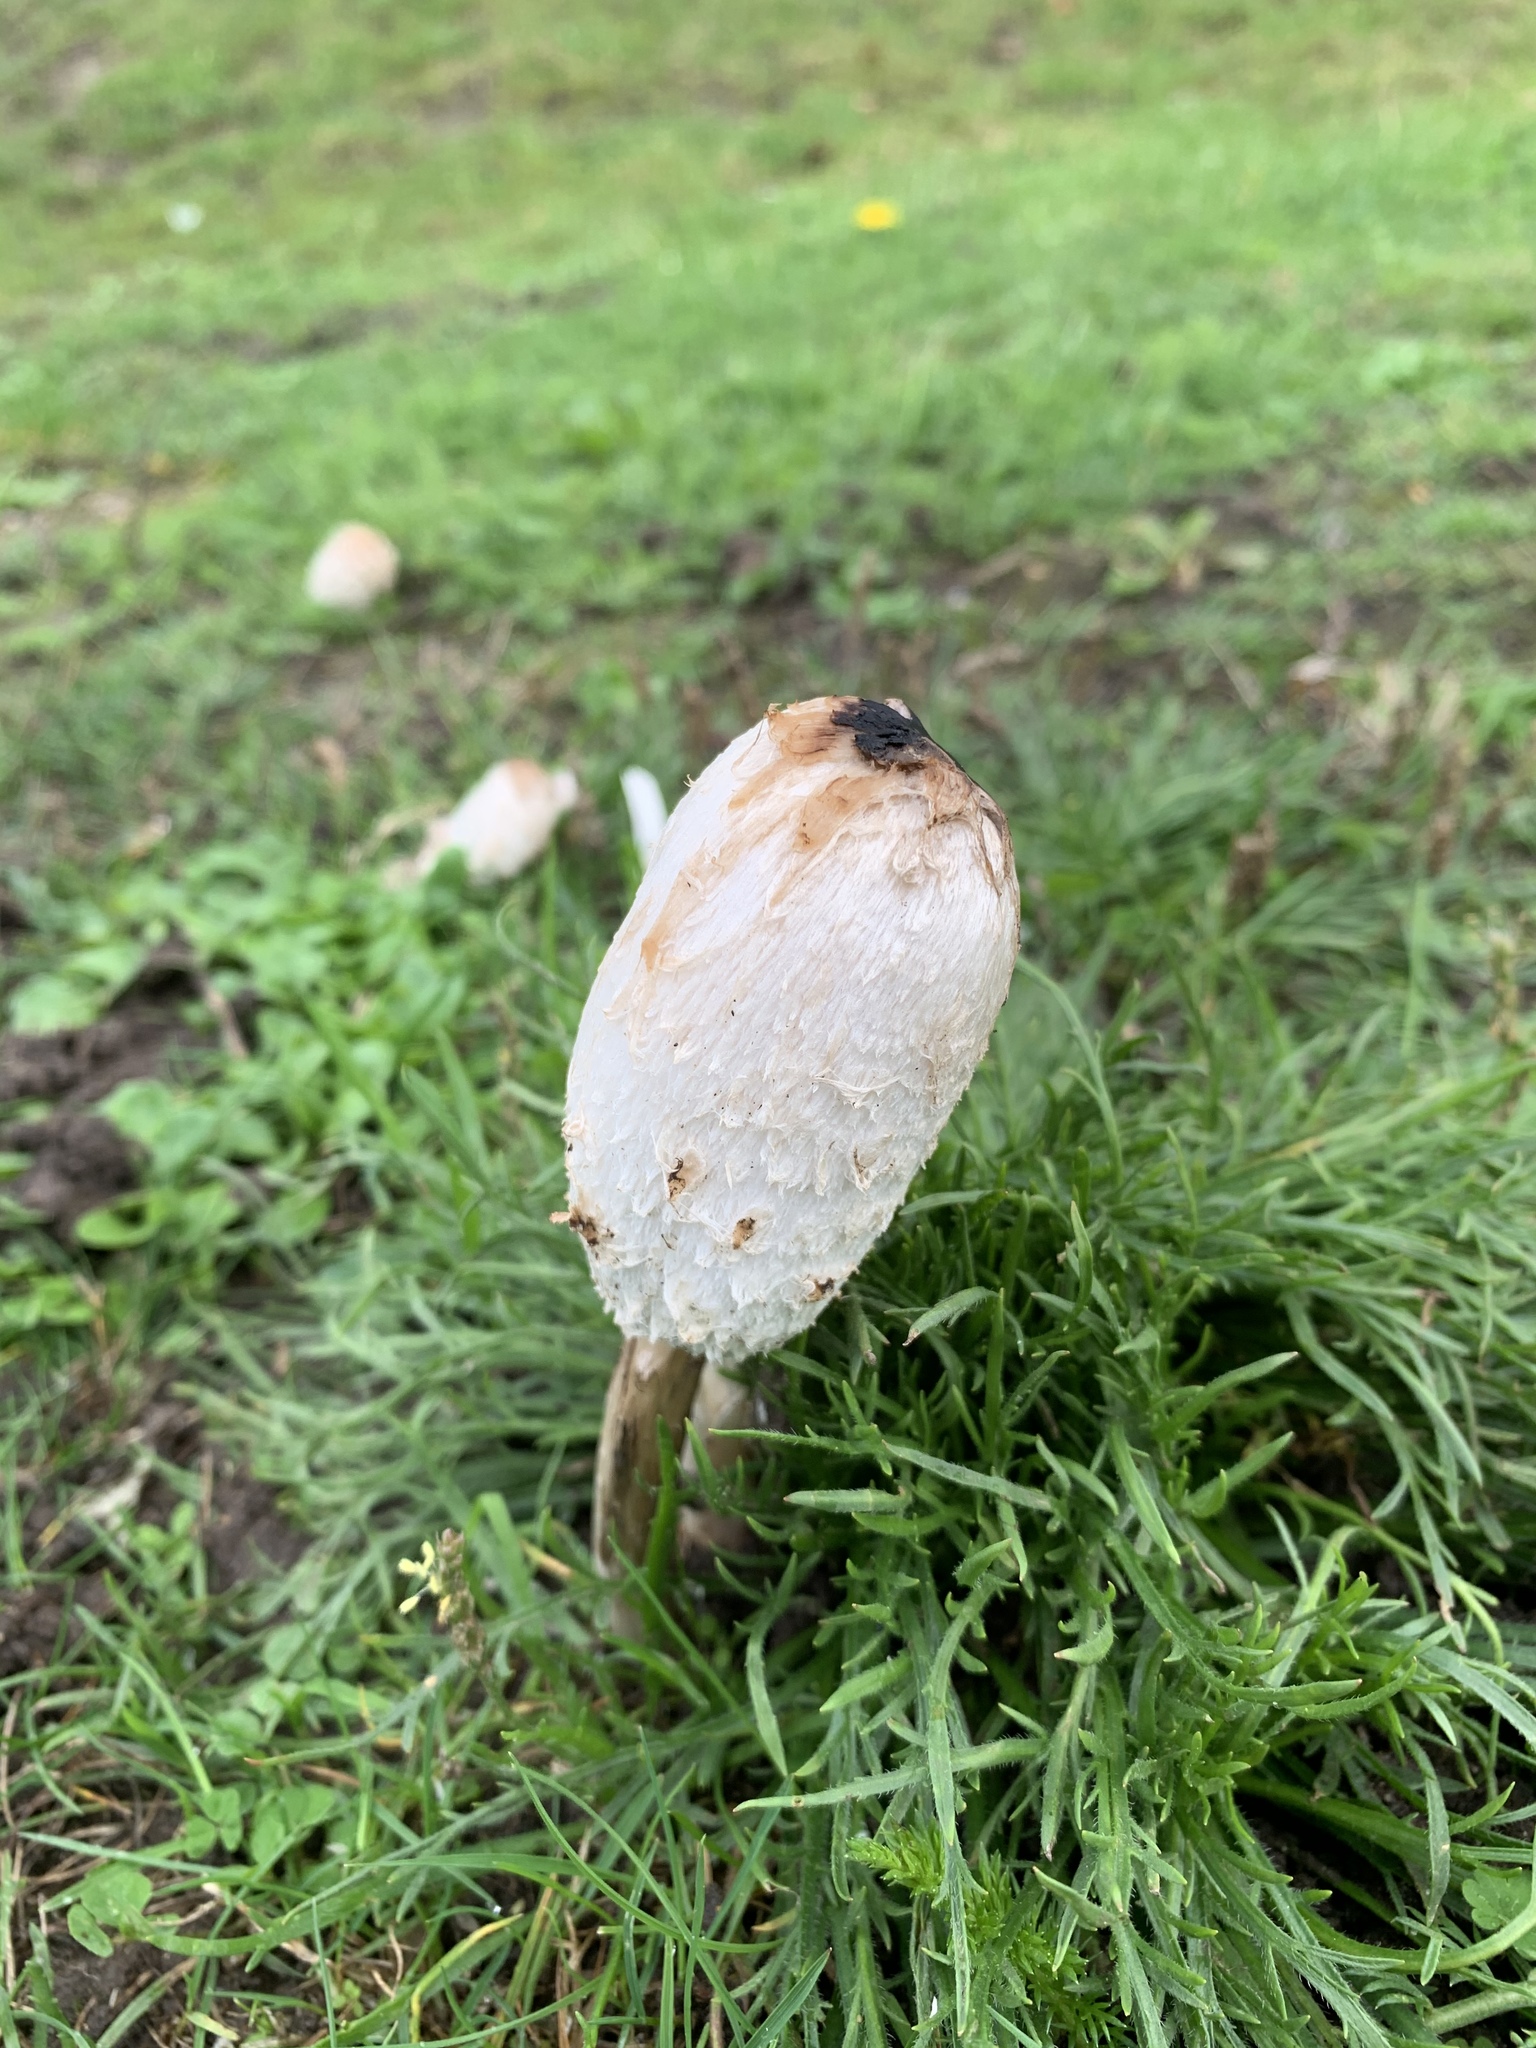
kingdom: Fungi
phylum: Basidiomycota
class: Agaricomycetes
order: Agaricales
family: Agaricaceae
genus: Coprinus
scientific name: Coprinus comatus
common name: Lawyer's wig
